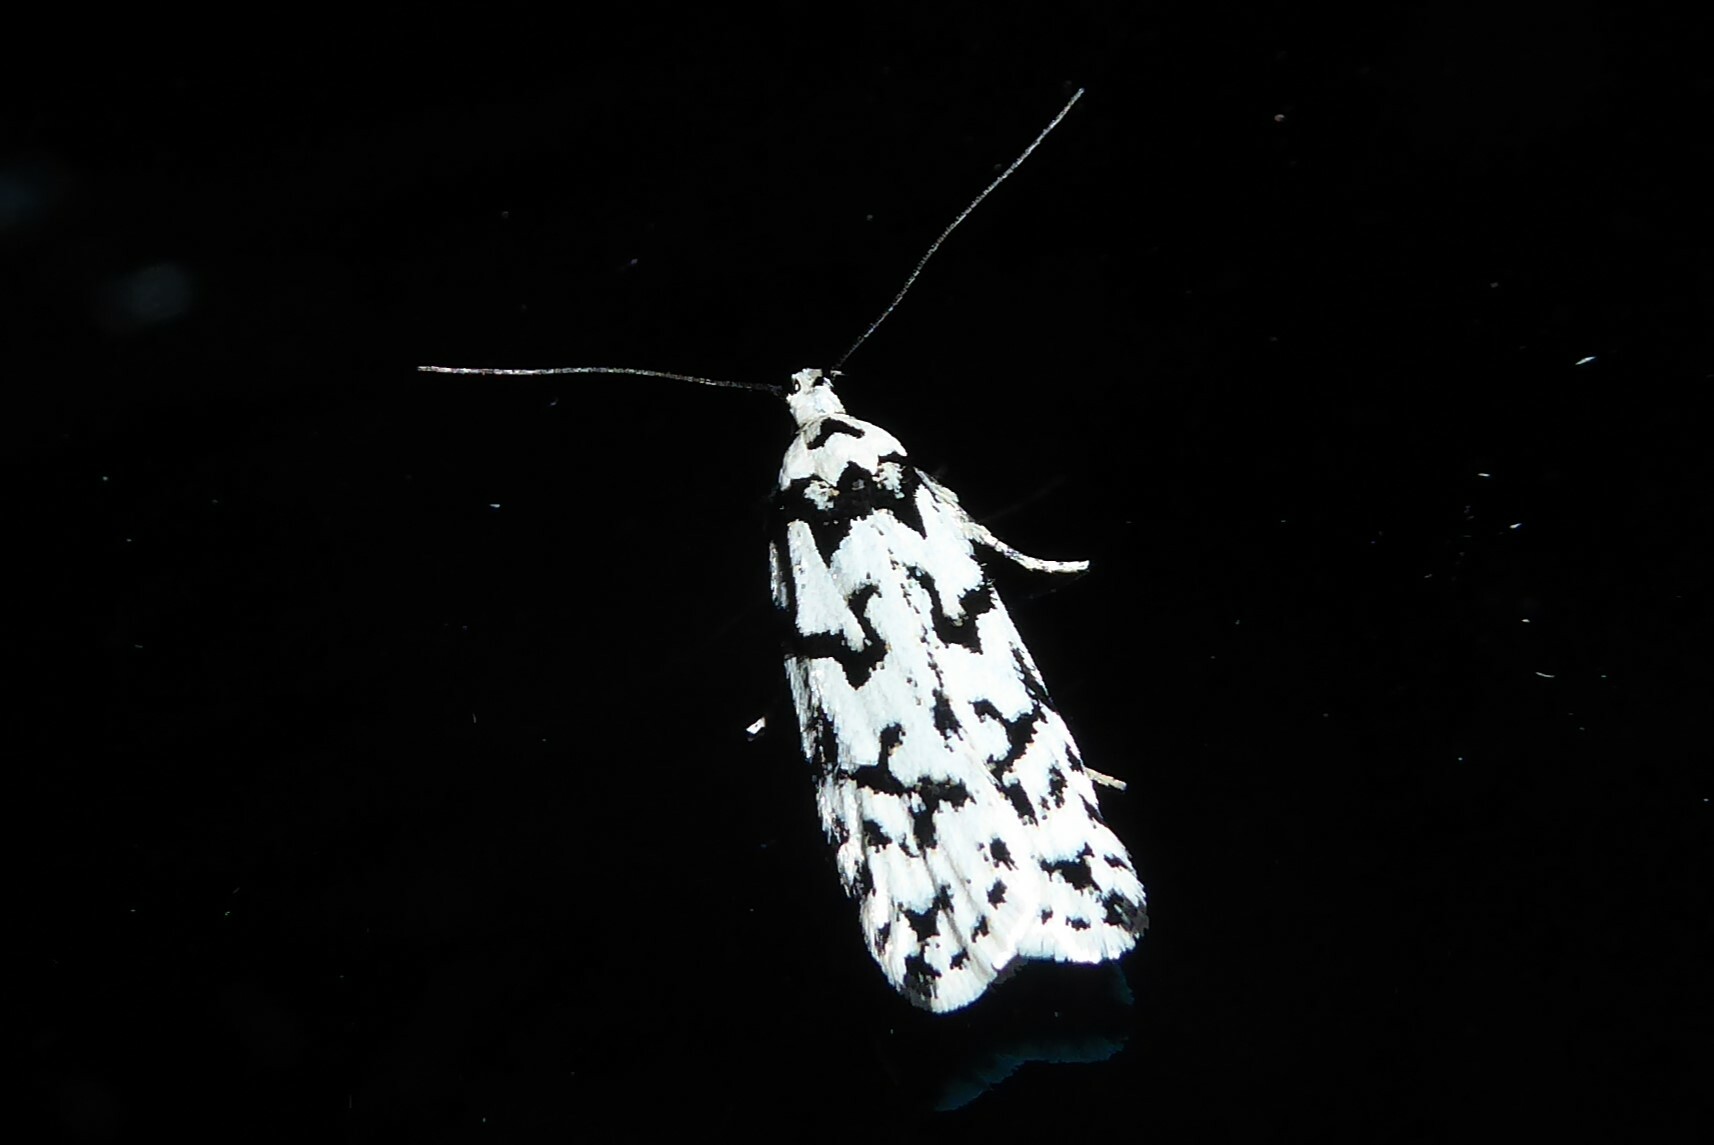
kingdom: Animalia
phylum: Arthropoda
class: Insecta
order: Lepidoptera
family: Oecophoridae
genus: Izatha
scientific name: Izatha katadiktya
